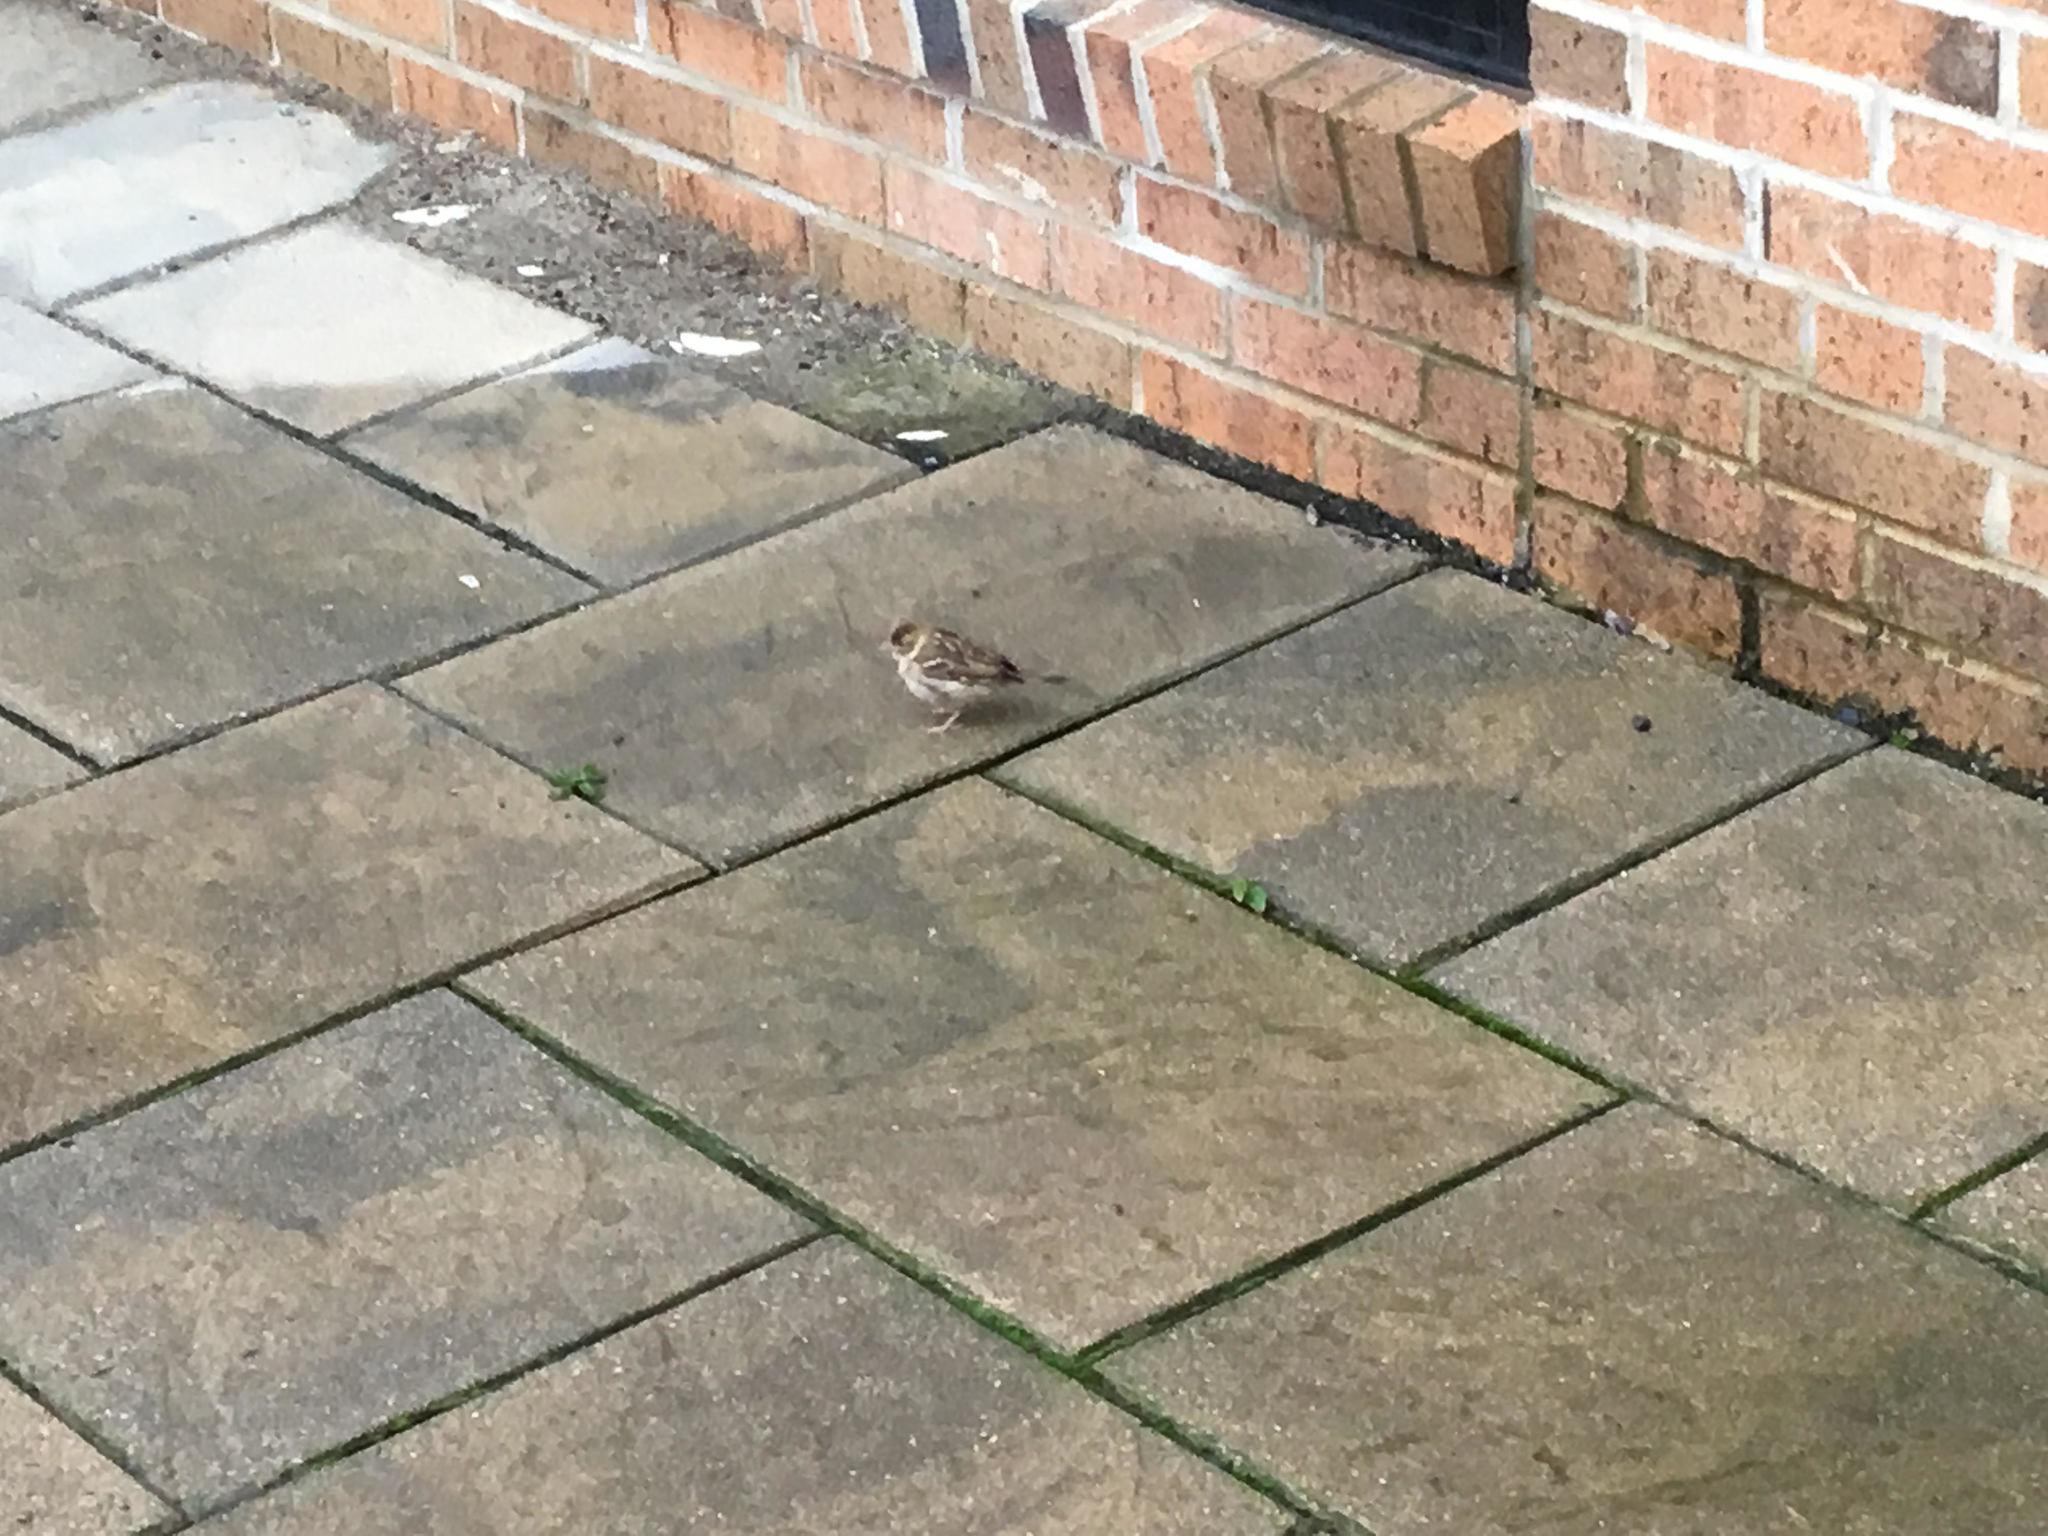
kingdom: Animalia
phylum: Chordata
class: Aves
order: Passeriformes
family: Passeridae
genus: Passer
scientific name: Passer domesticus
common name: House sparrow
